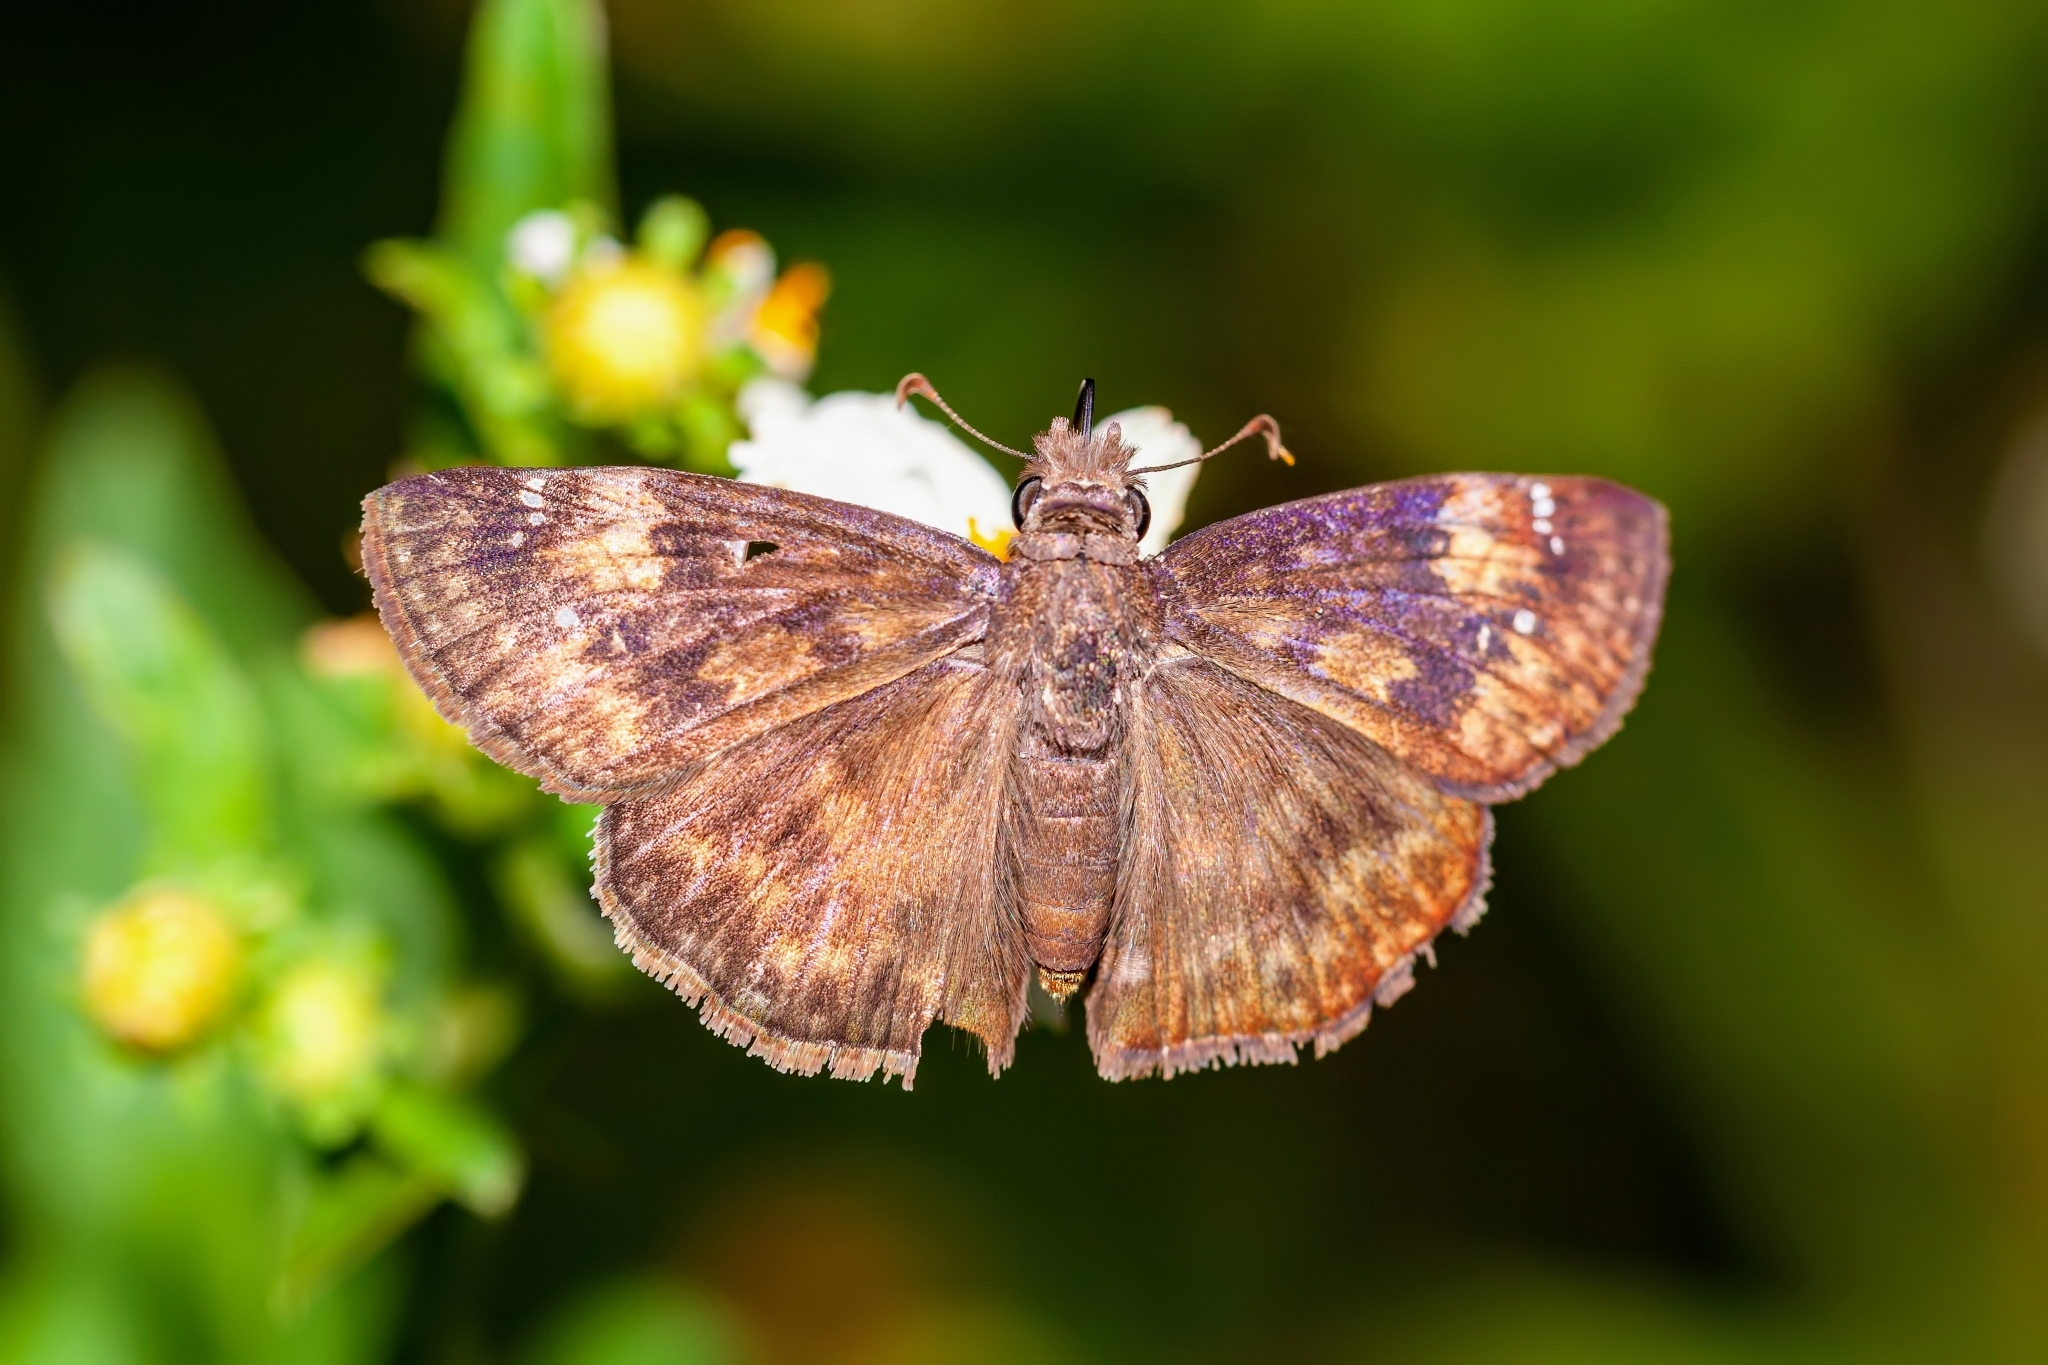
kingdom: Animalia
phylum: Arthropoda
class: Insecta
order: Lepidoptera
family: Hesperiidae
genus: Erynnis
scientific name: Erynnis zarucco
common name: Zarucco duskywing
